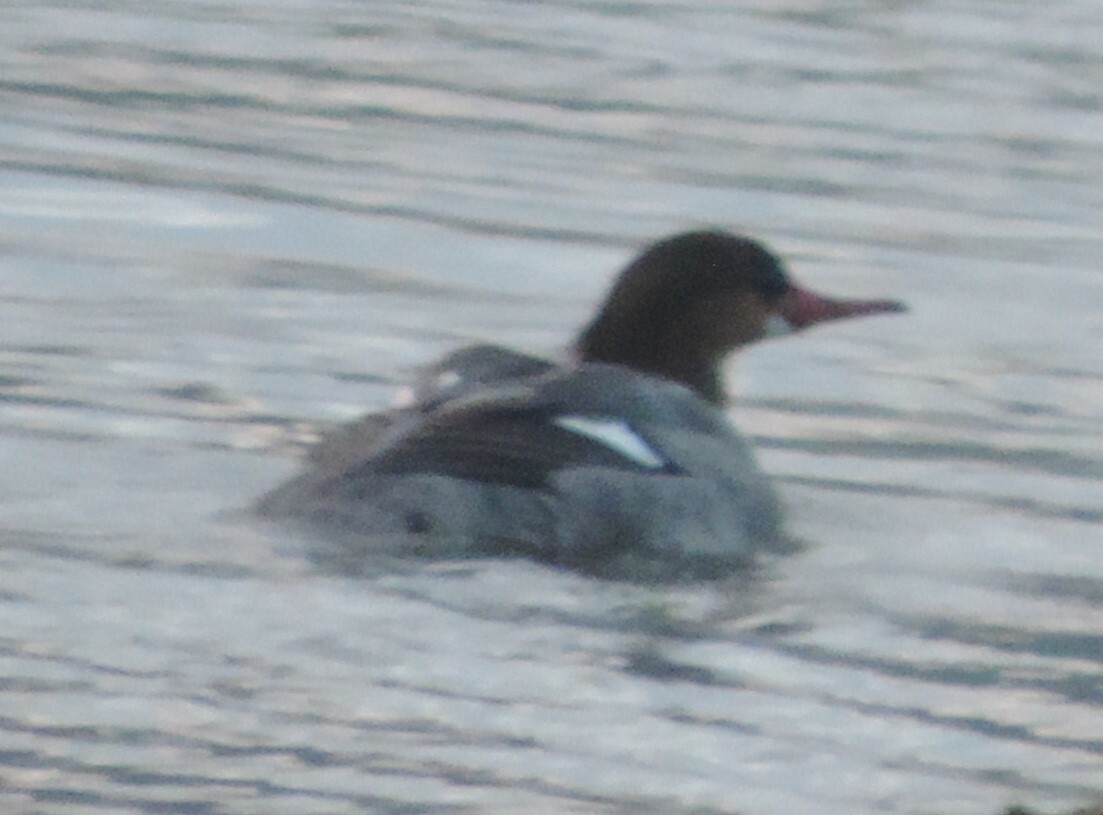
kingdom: Animalia
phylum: Chordata
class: Aves
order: Anseriformes
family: Anatidae
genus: Mergus
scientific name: Mergus merganser
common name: Common merganser
